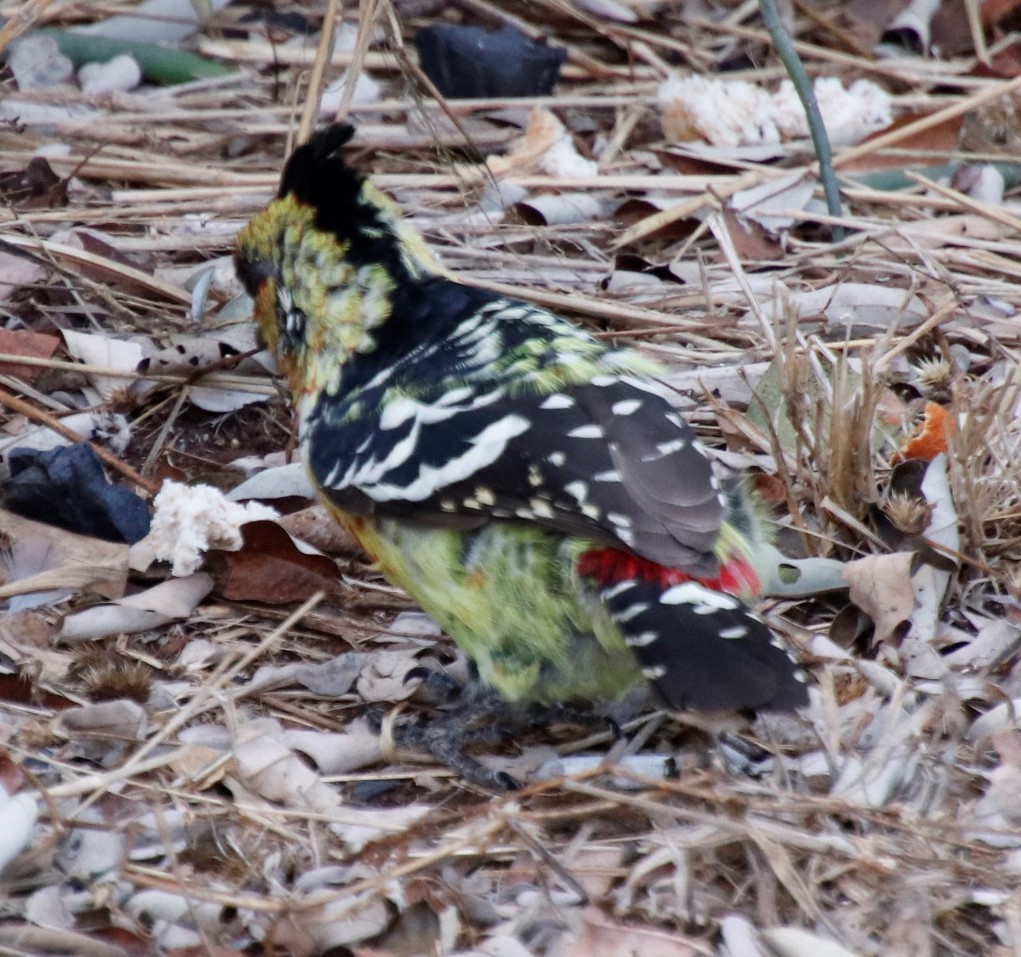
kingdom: Animalia
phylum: Chordata
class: Aves
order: Piciformes
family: Lybiidae
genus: Trachyphonus
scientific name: Trachyphonus vaillantii
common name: Crested barbet
